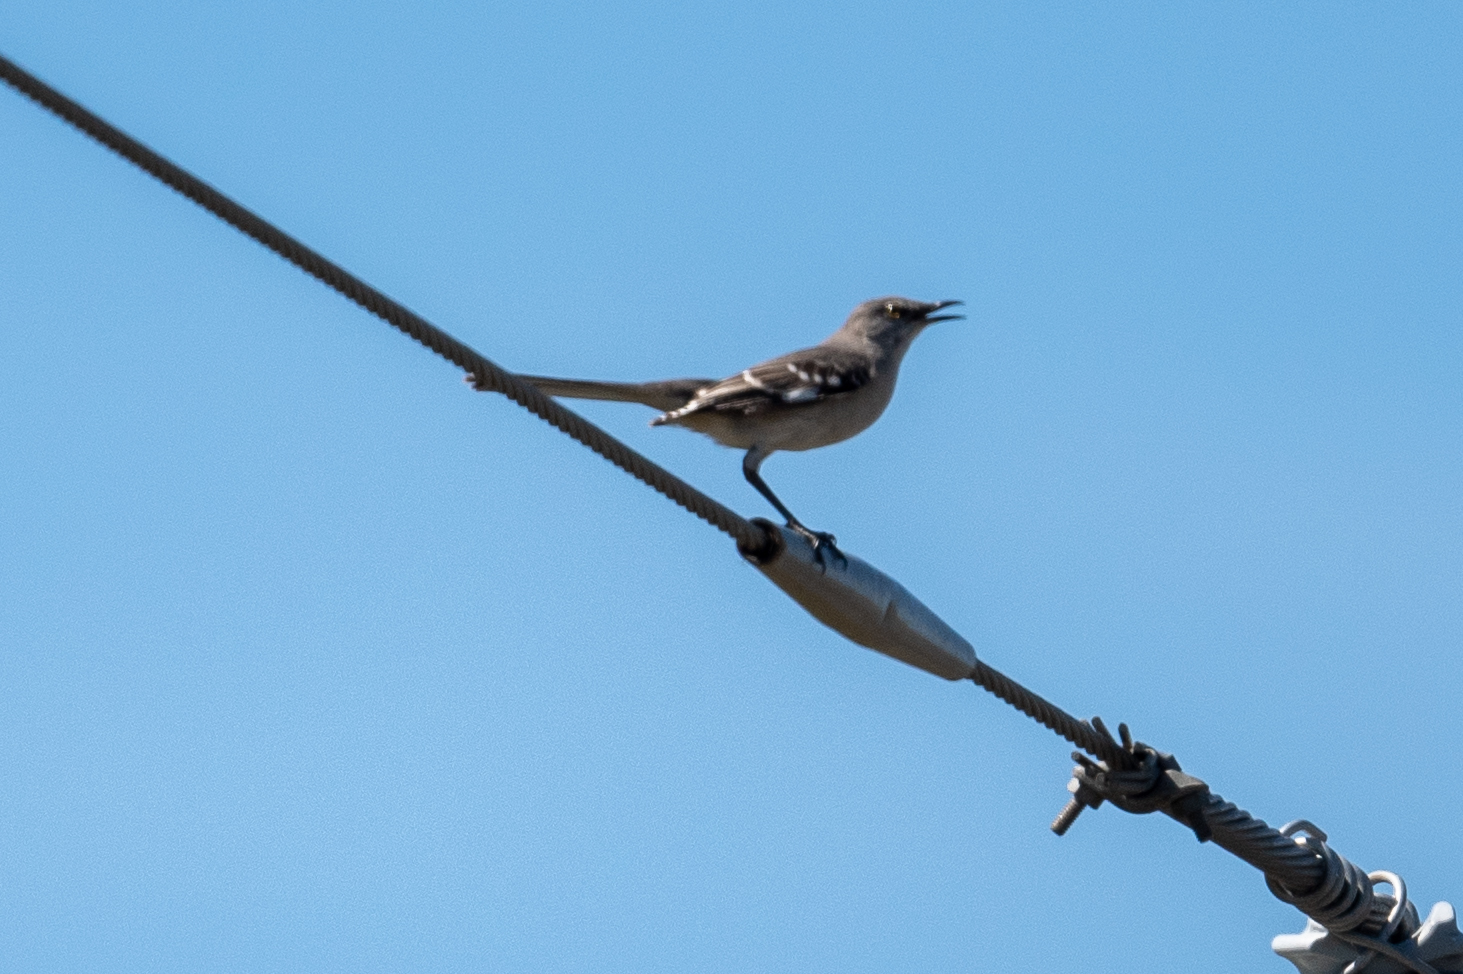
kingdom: Animalia
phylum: Chordata
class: Aves
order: Passeriformes
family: Mimidae
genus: Mimus
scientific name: Mimus polyglottos
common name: Northern mockingbird
